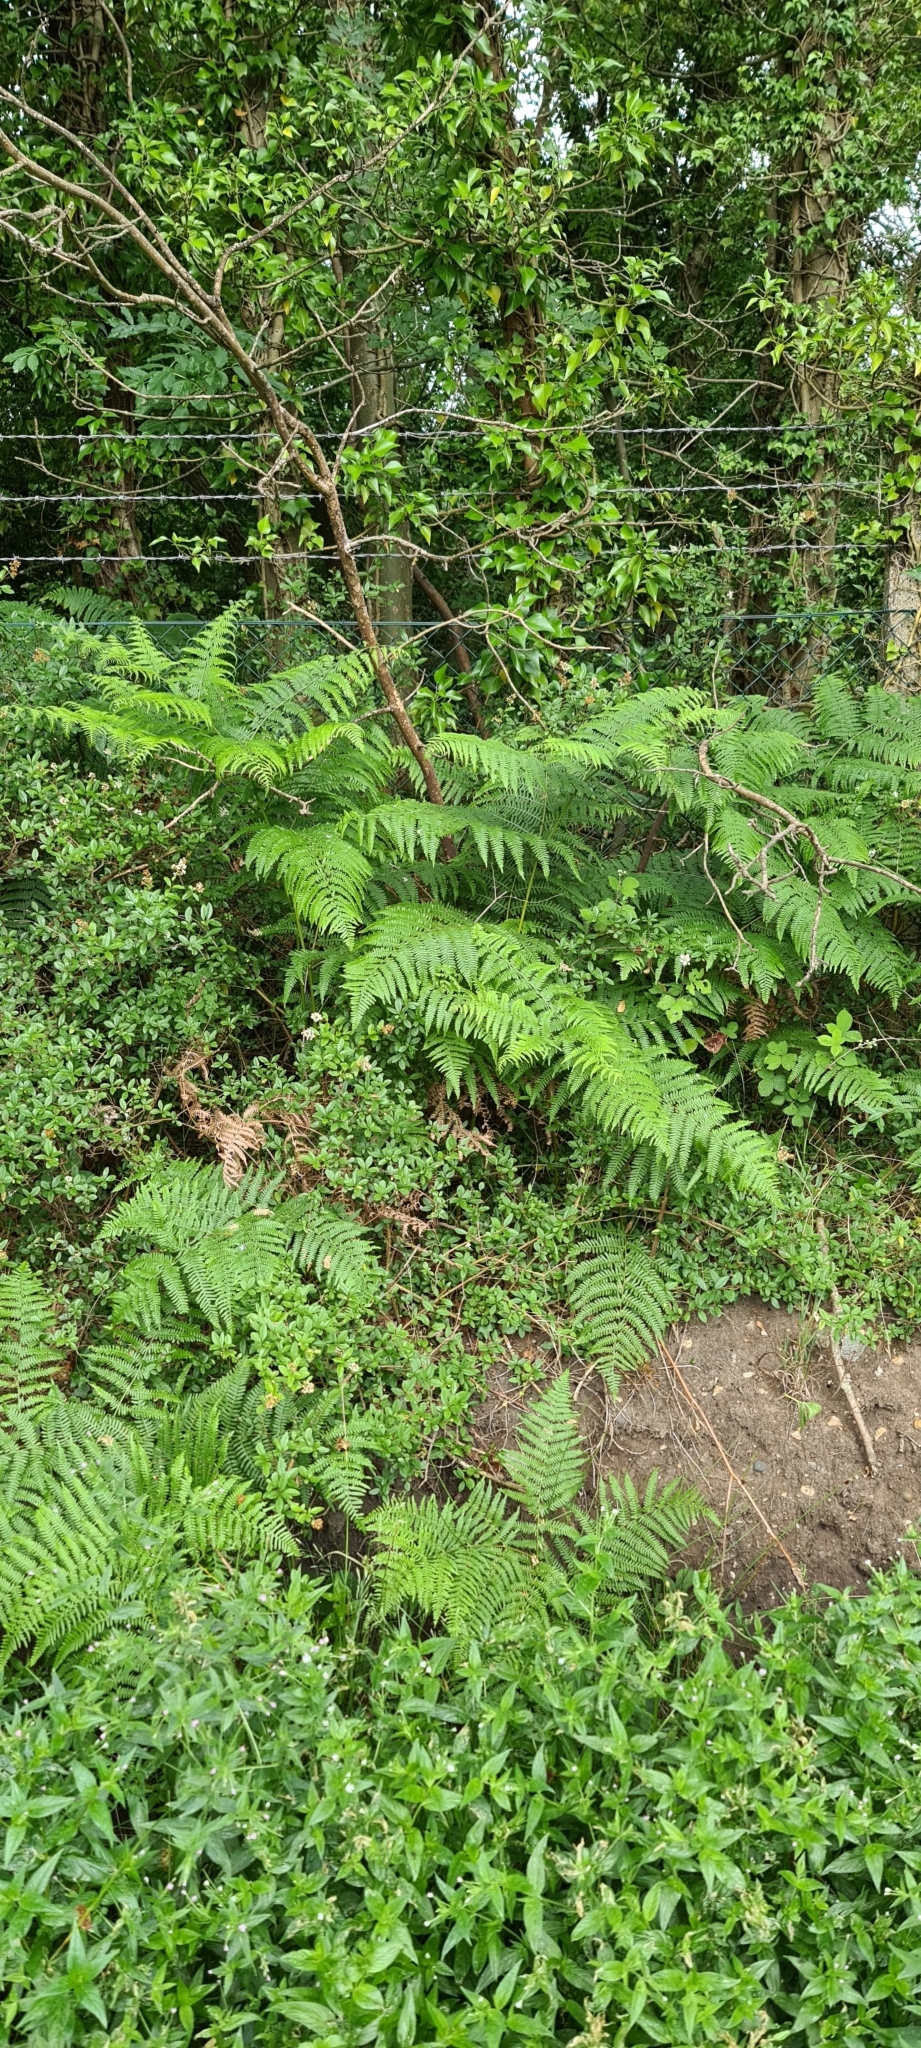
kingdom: Plantae
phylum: Tracheophyta
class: Polypodiopsida
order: Polypodiales
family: Dennstaedtiaceae
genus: Pteridium
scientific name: Pteridium aquilinum
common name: Bracken
